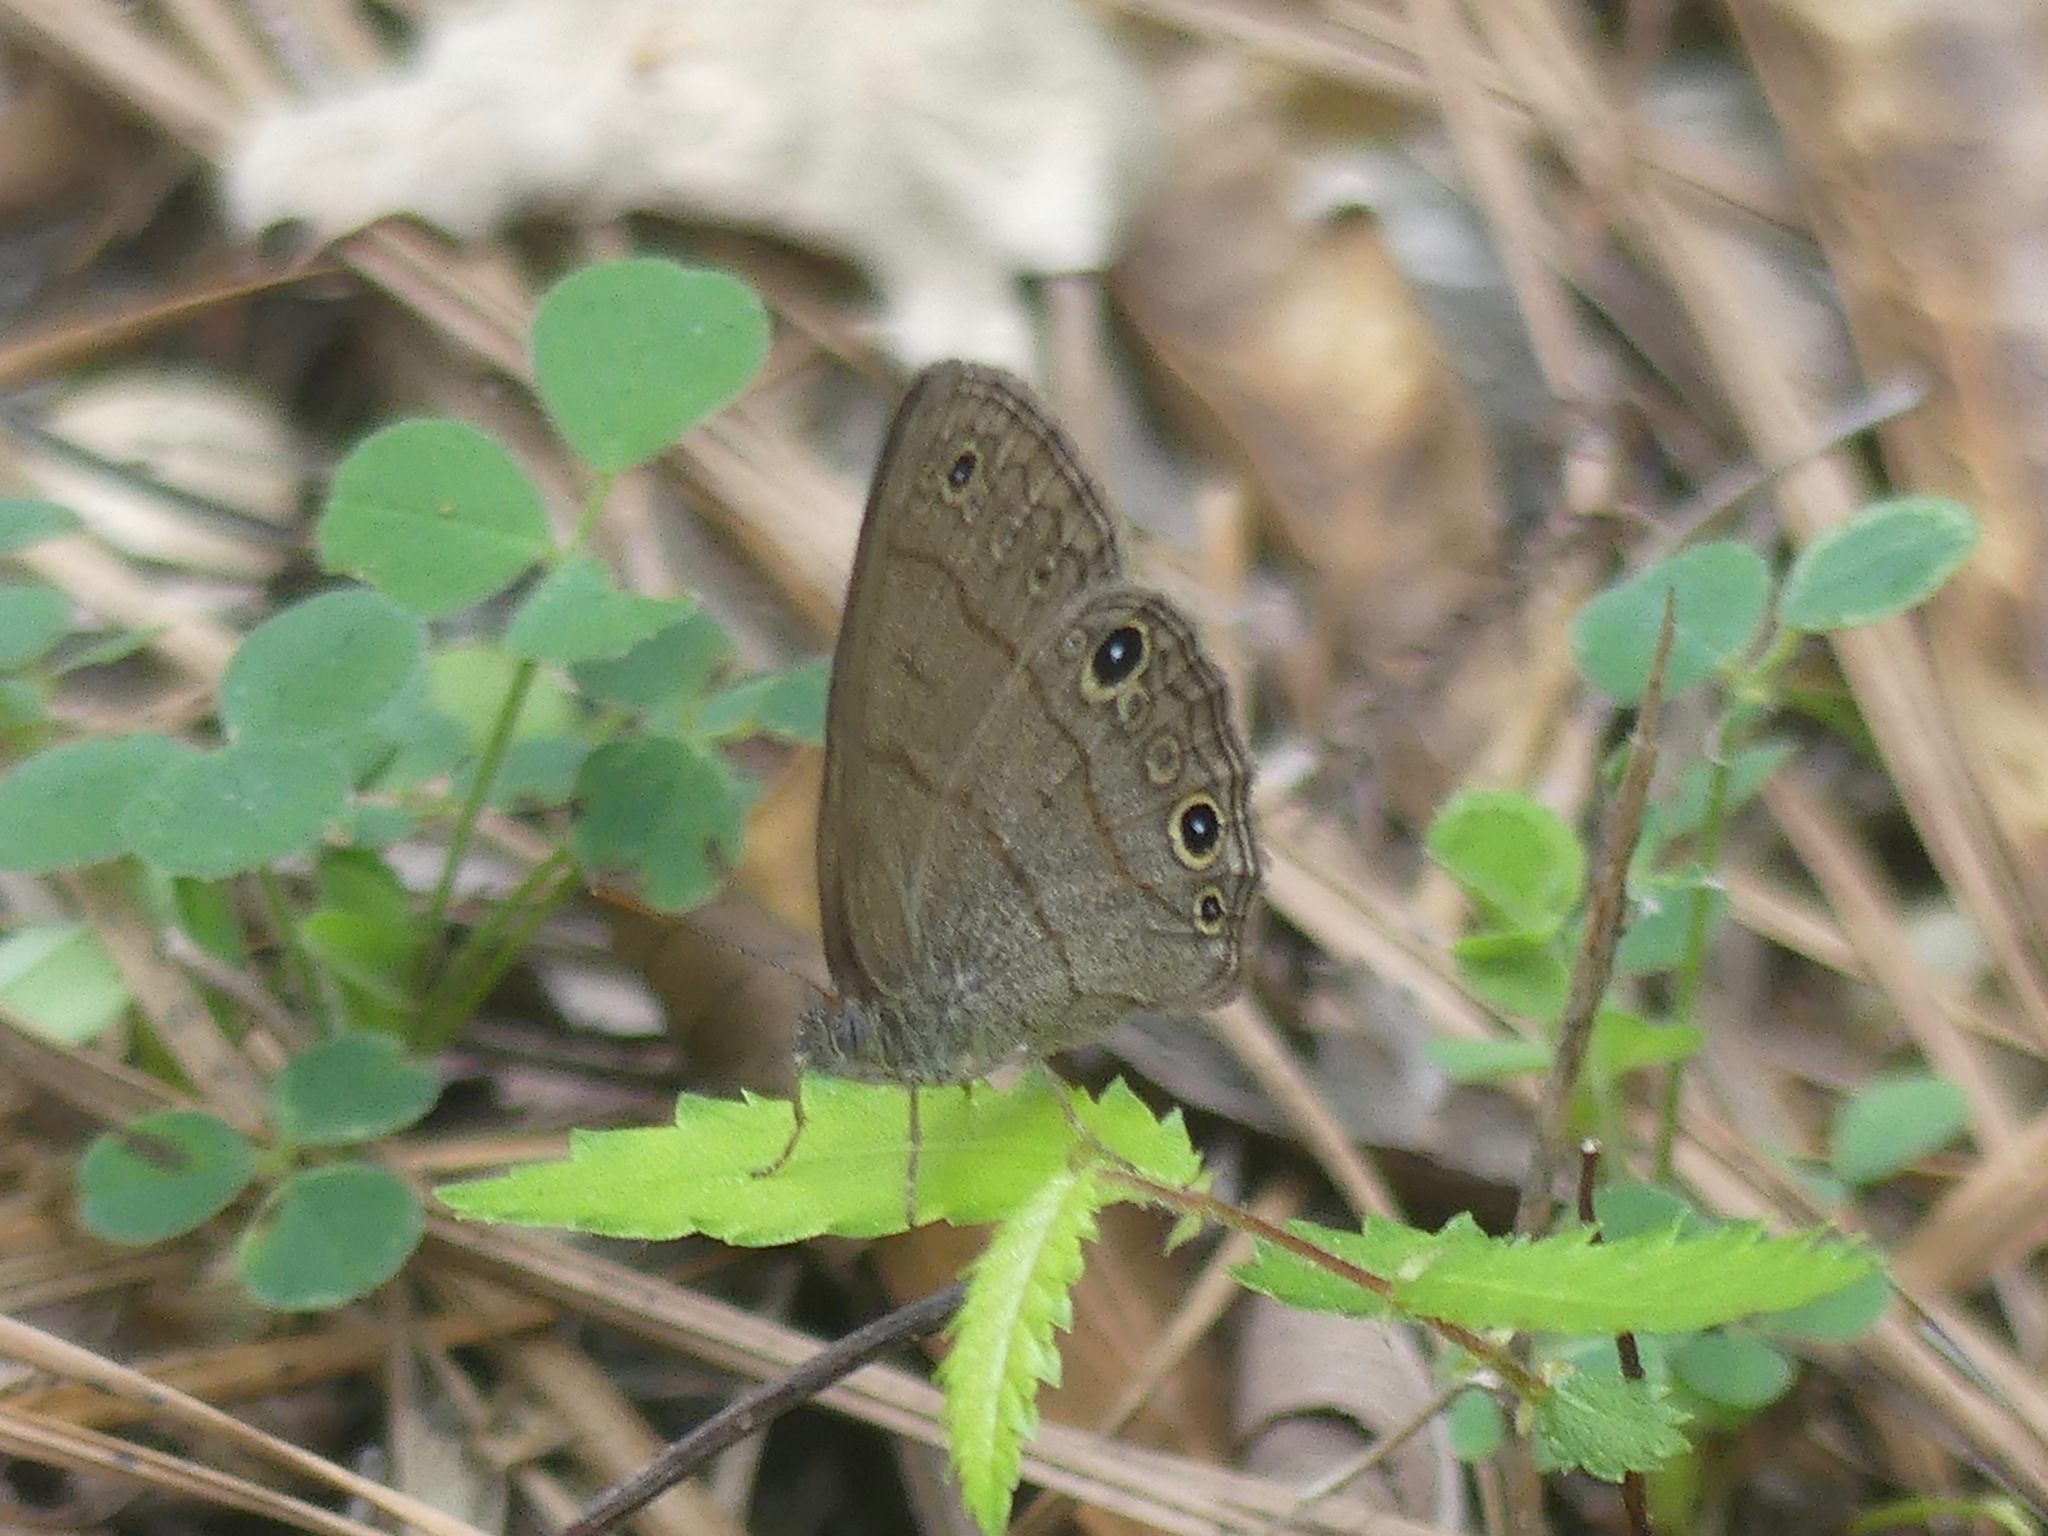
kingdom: Animalia
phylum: Arthropoda
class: Insecta
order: Lepidoptera
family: Nymphalidae
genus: Hermeuptychia
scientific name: Hermeuptychia hermes
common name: Hermes satyr
